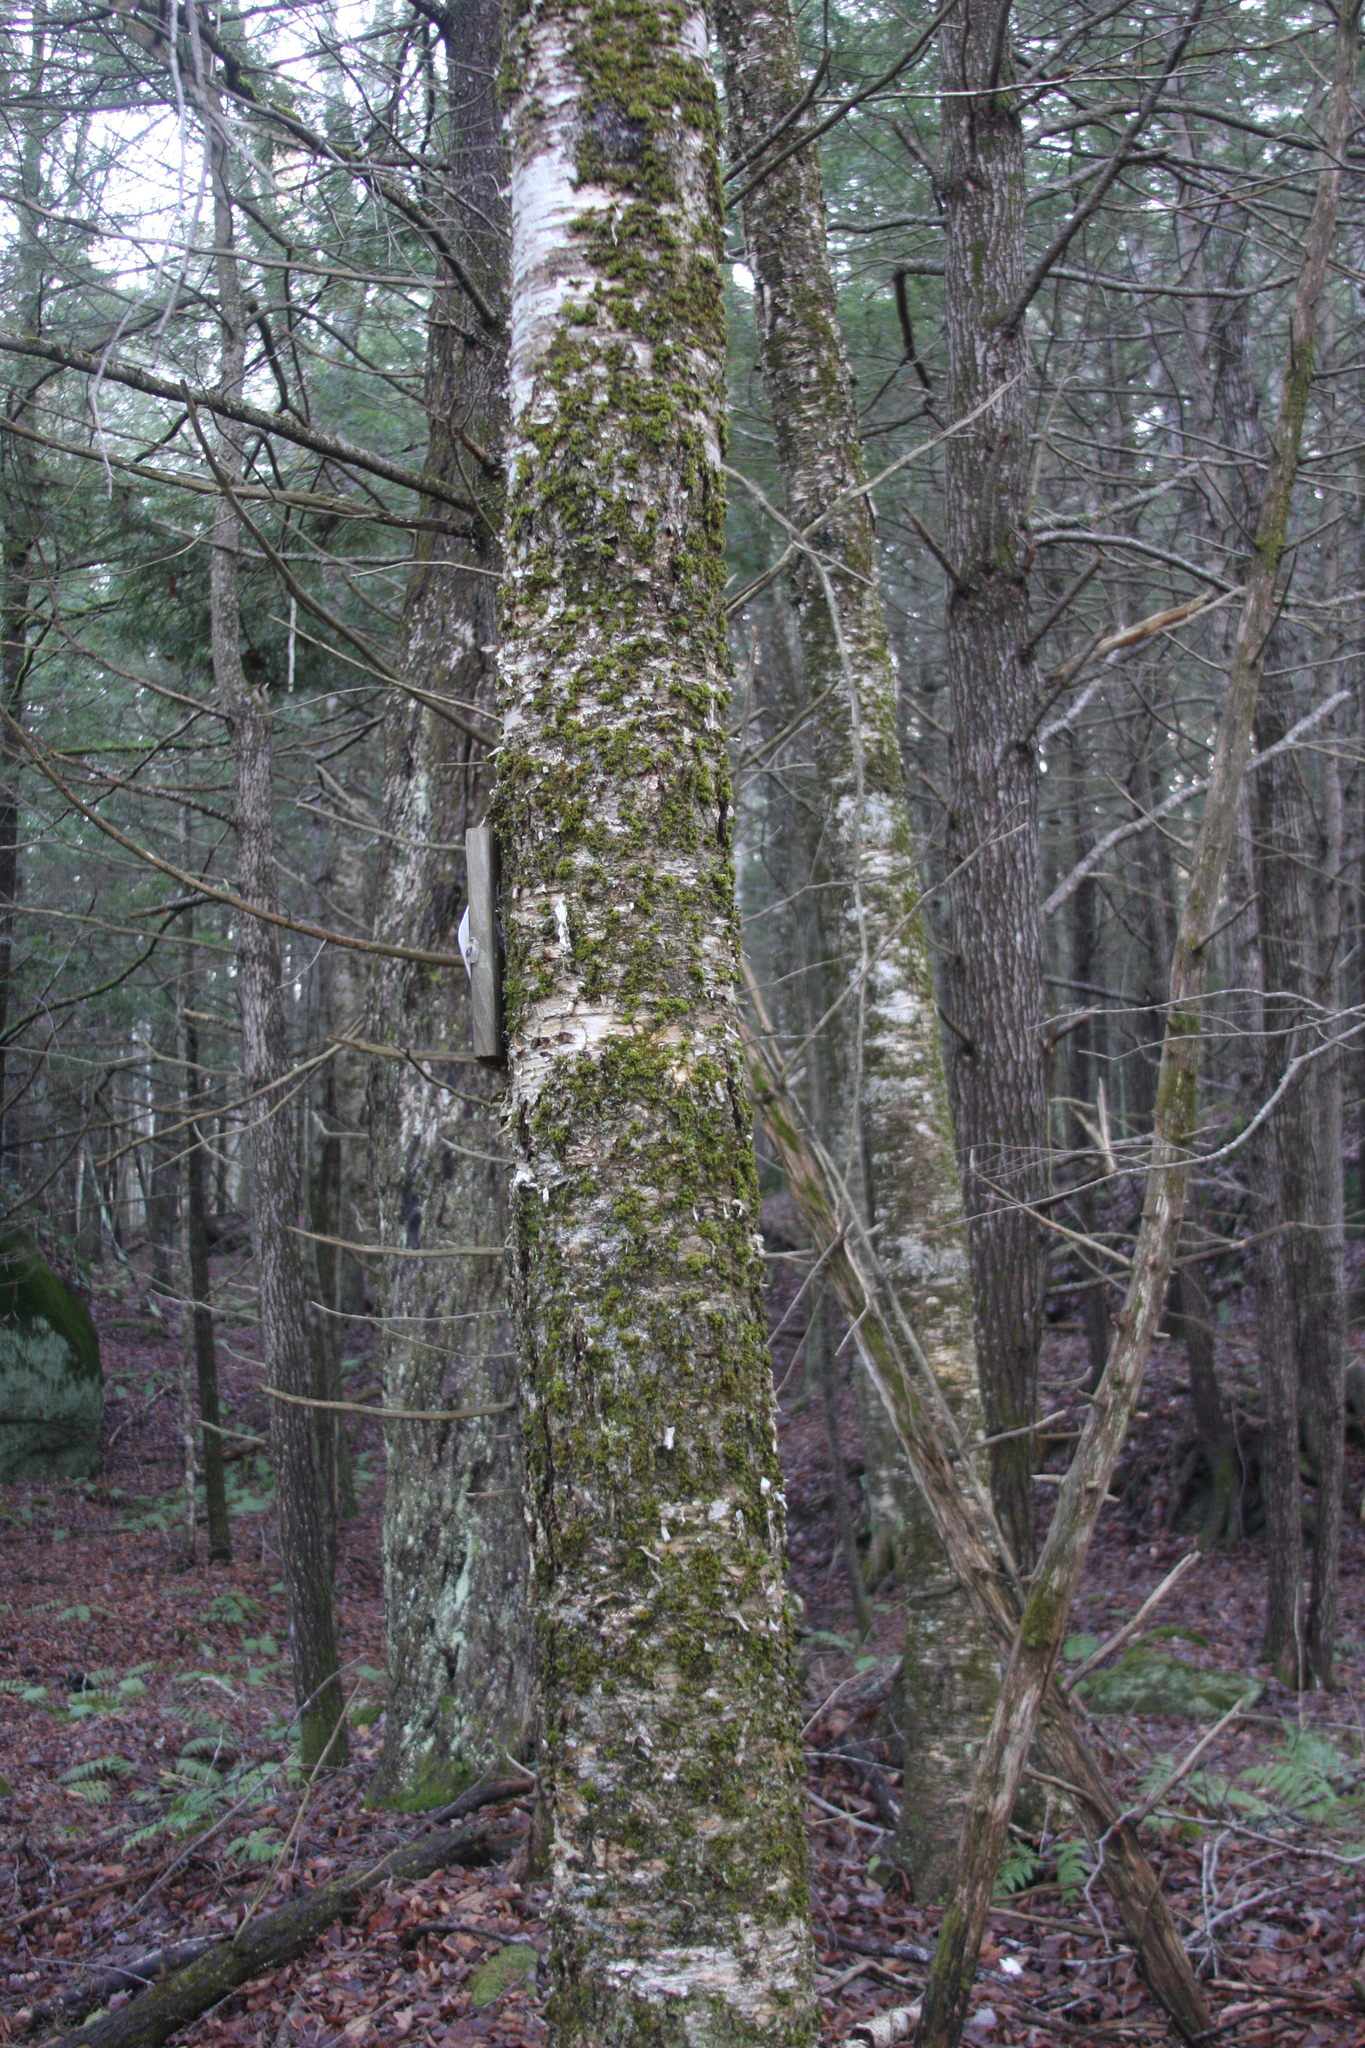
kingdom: Plantae
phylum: Bryophyta
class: Bryopsida
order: Orthotrichales
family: Orthotrichaceae
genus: Ulota
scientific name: Ulota crispa
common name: Crisped pincushion moss
